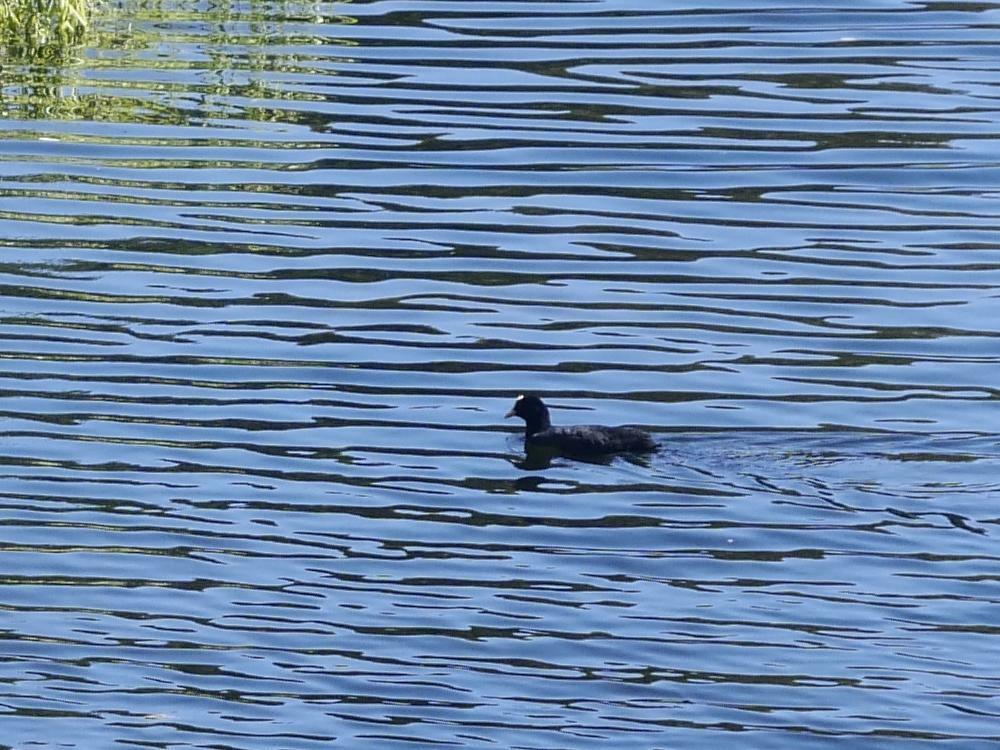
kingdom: Animalia
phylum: Chordata
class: Aves
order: Gruiformes
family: Rallidae
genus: Fulica
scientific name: Fulica atra
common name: Eurasian coot
